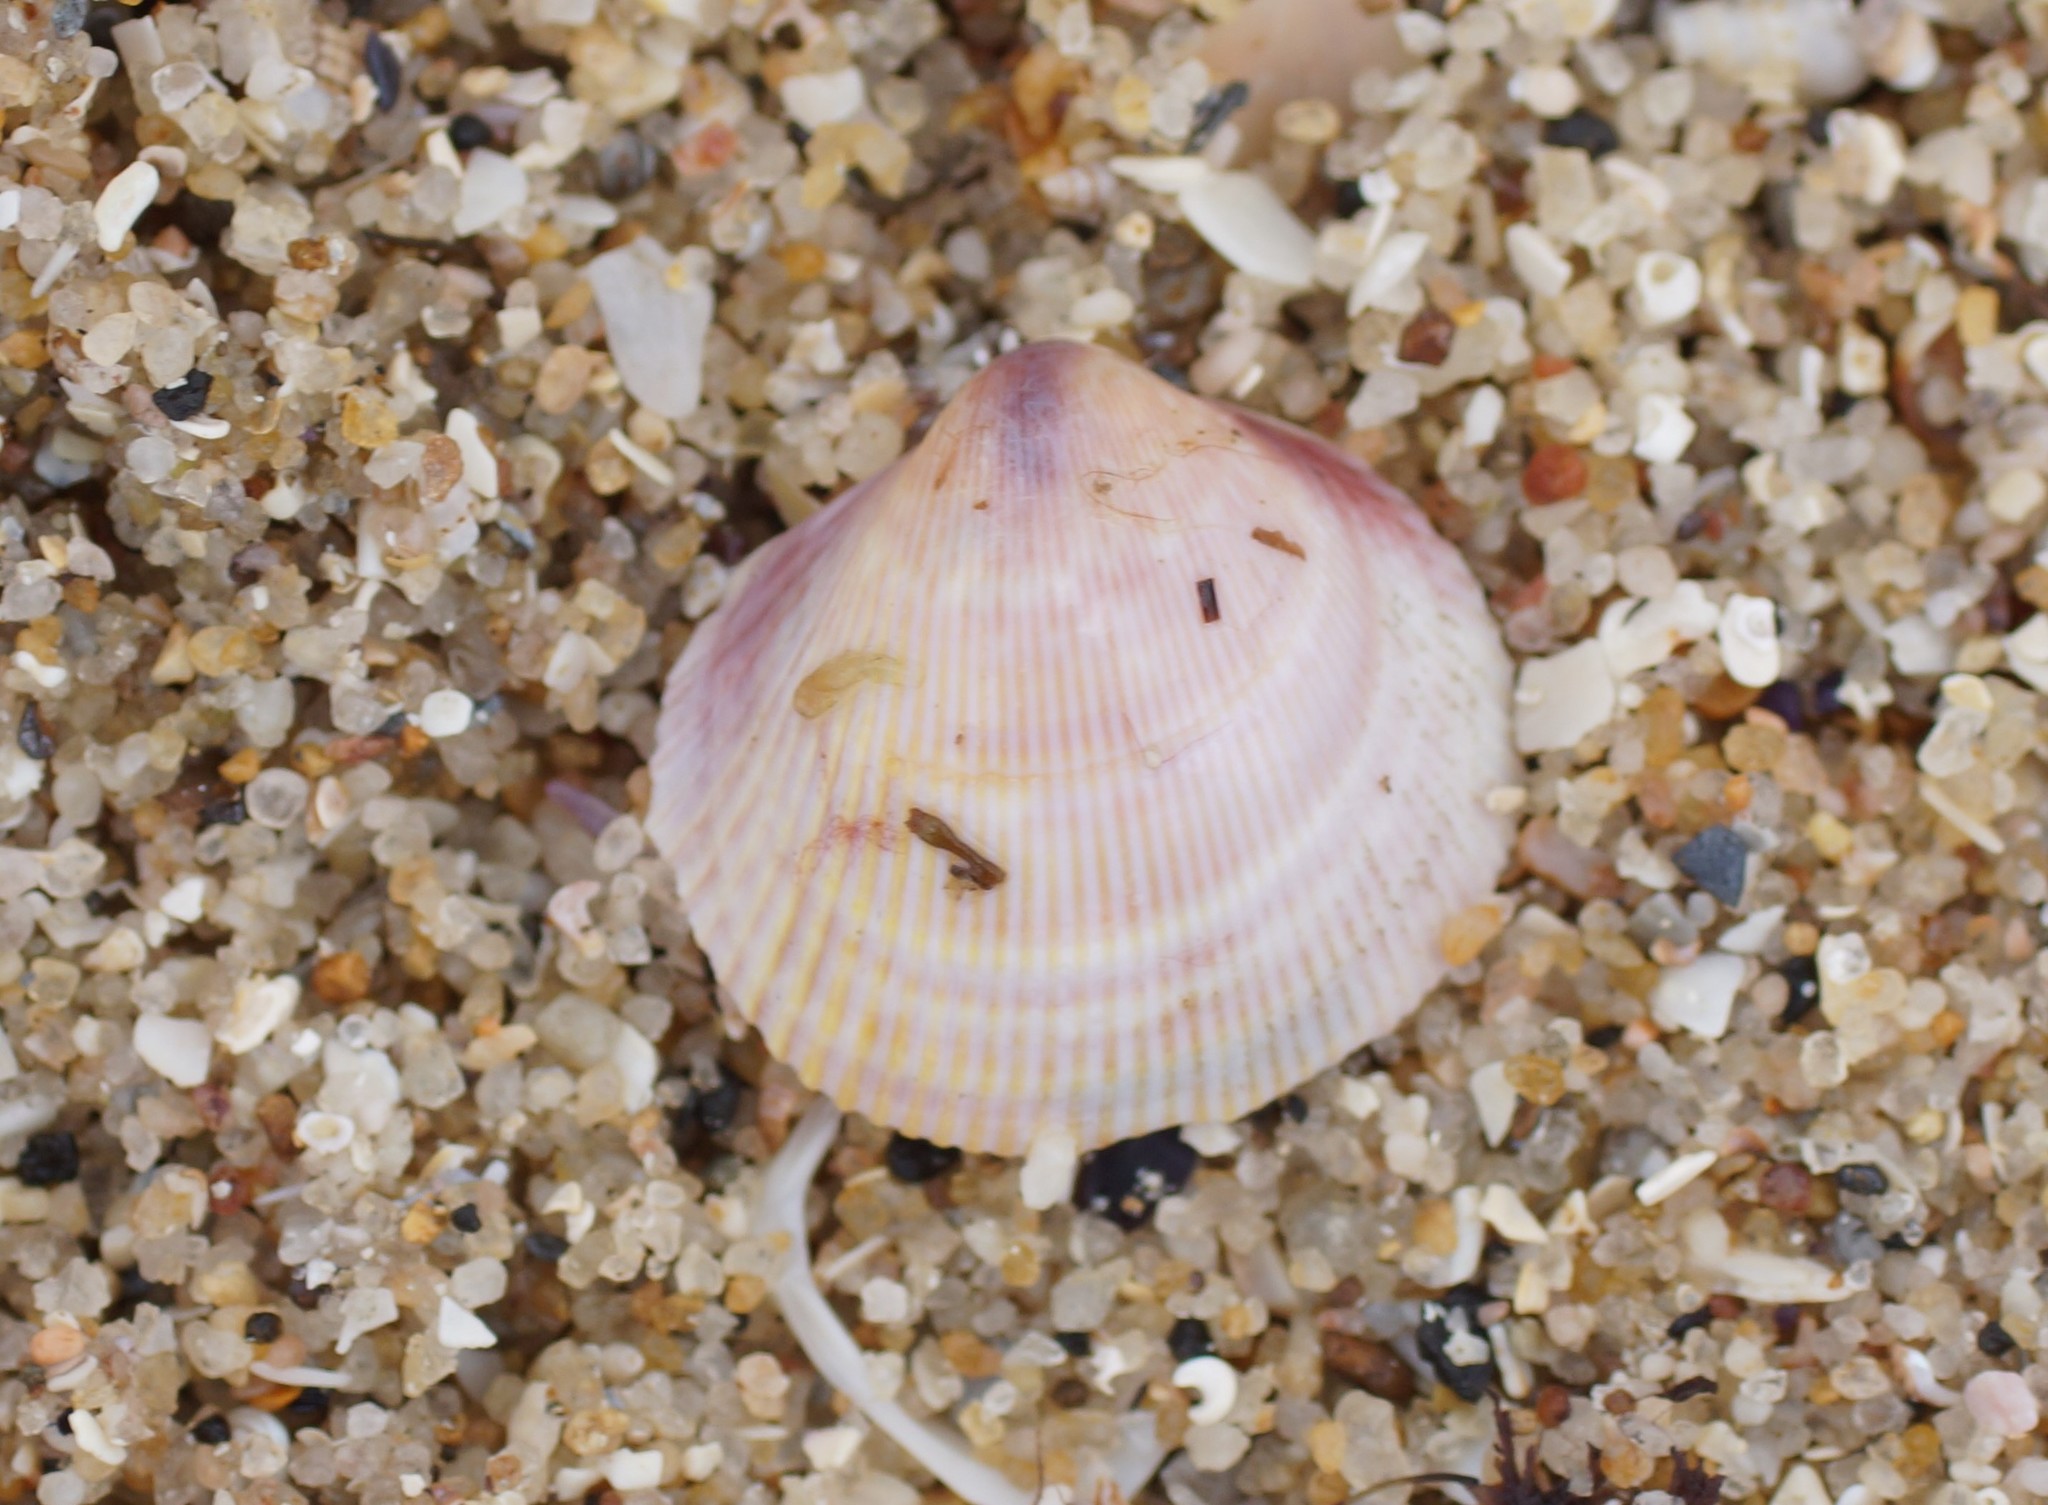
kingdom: Animalia
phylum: Mollusca
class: Bivalvia
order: Cardiida
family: Cardiidae
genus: Fulvia
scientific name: Fulvia tenuicostata
